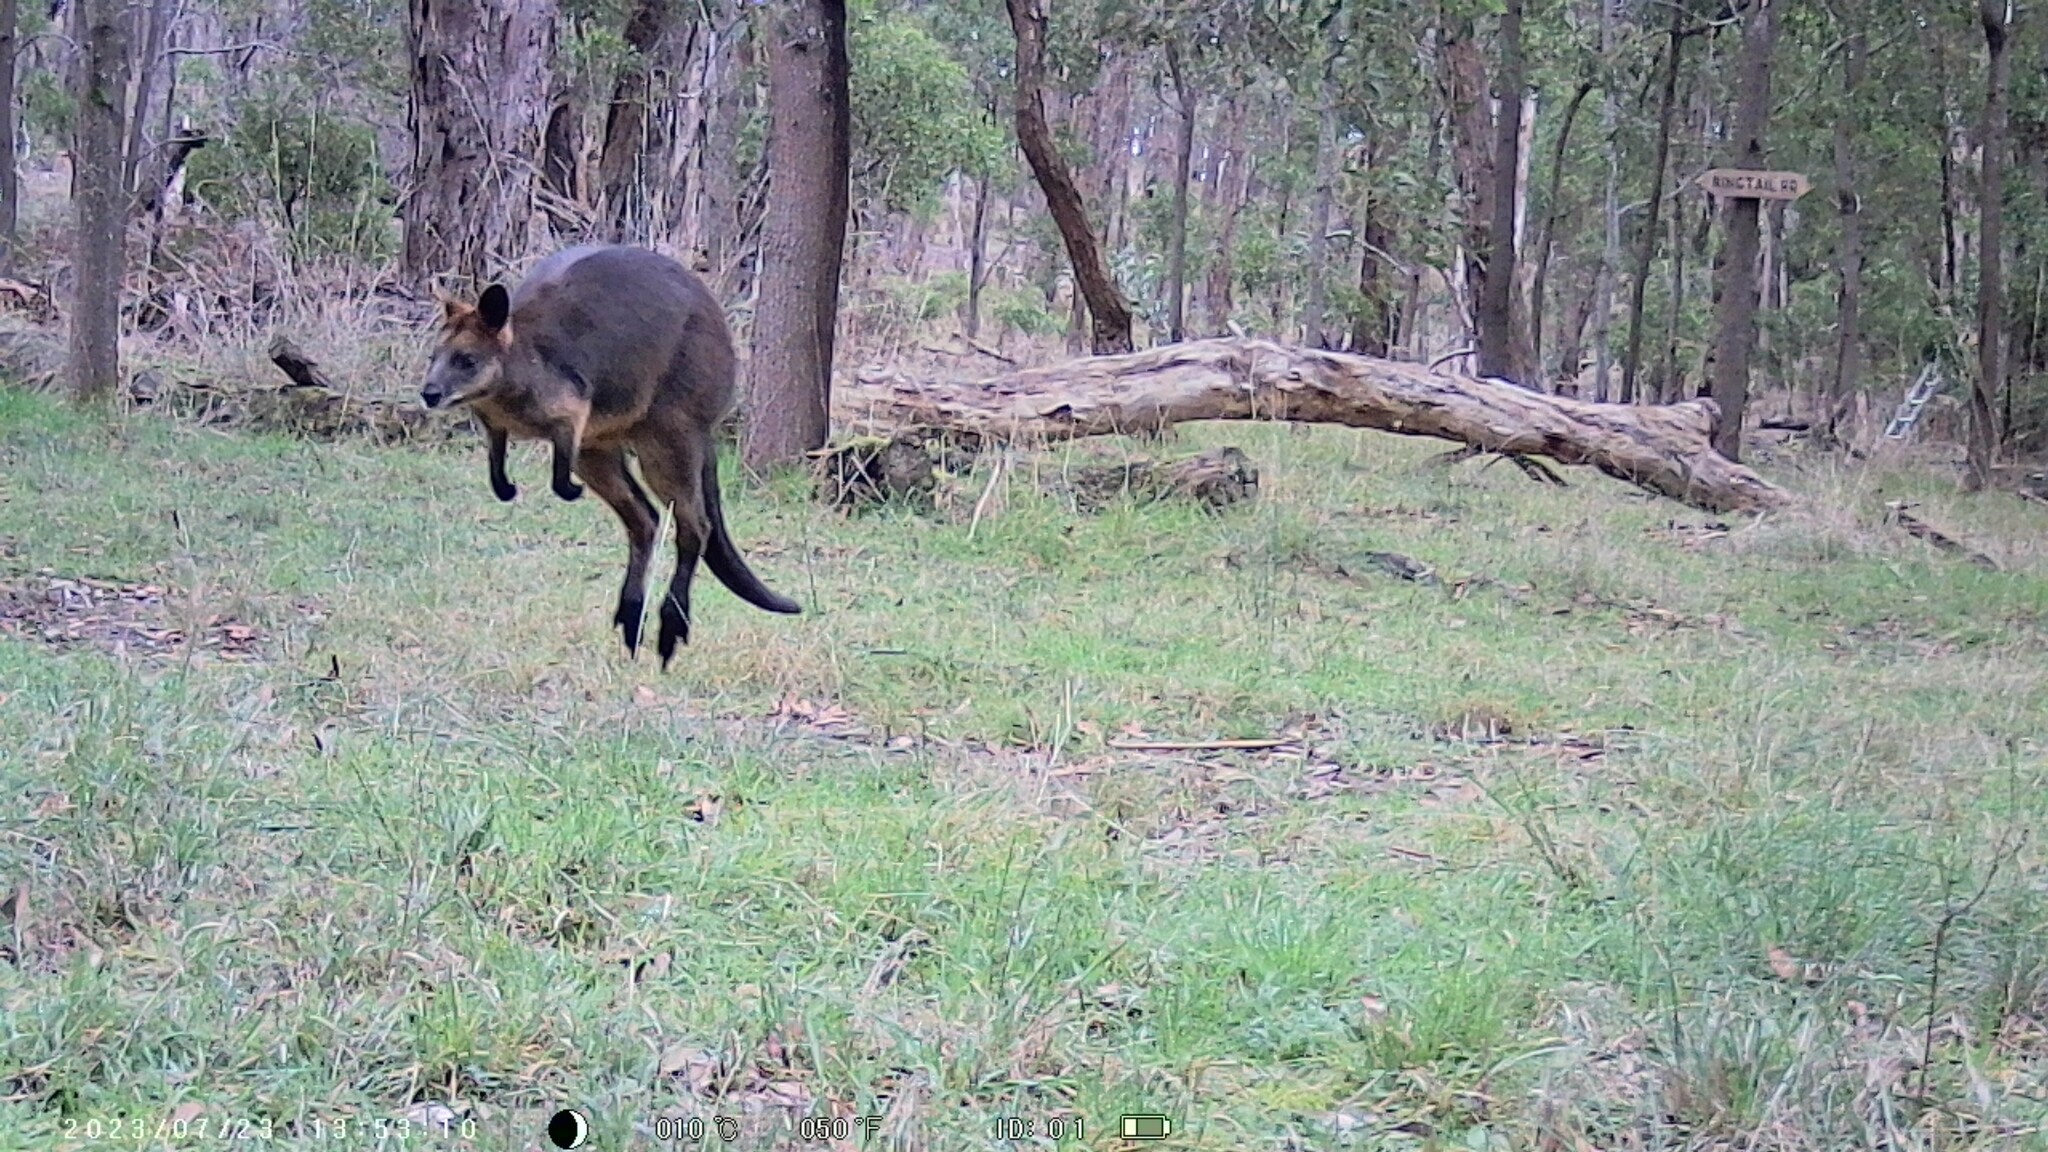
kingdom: Animalia
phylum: Chordata
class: Mammalia
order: Diprotodontia
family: Macropodidae
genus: Wallabia
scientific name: Wallabia bicolor
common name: Swamp wallaby
